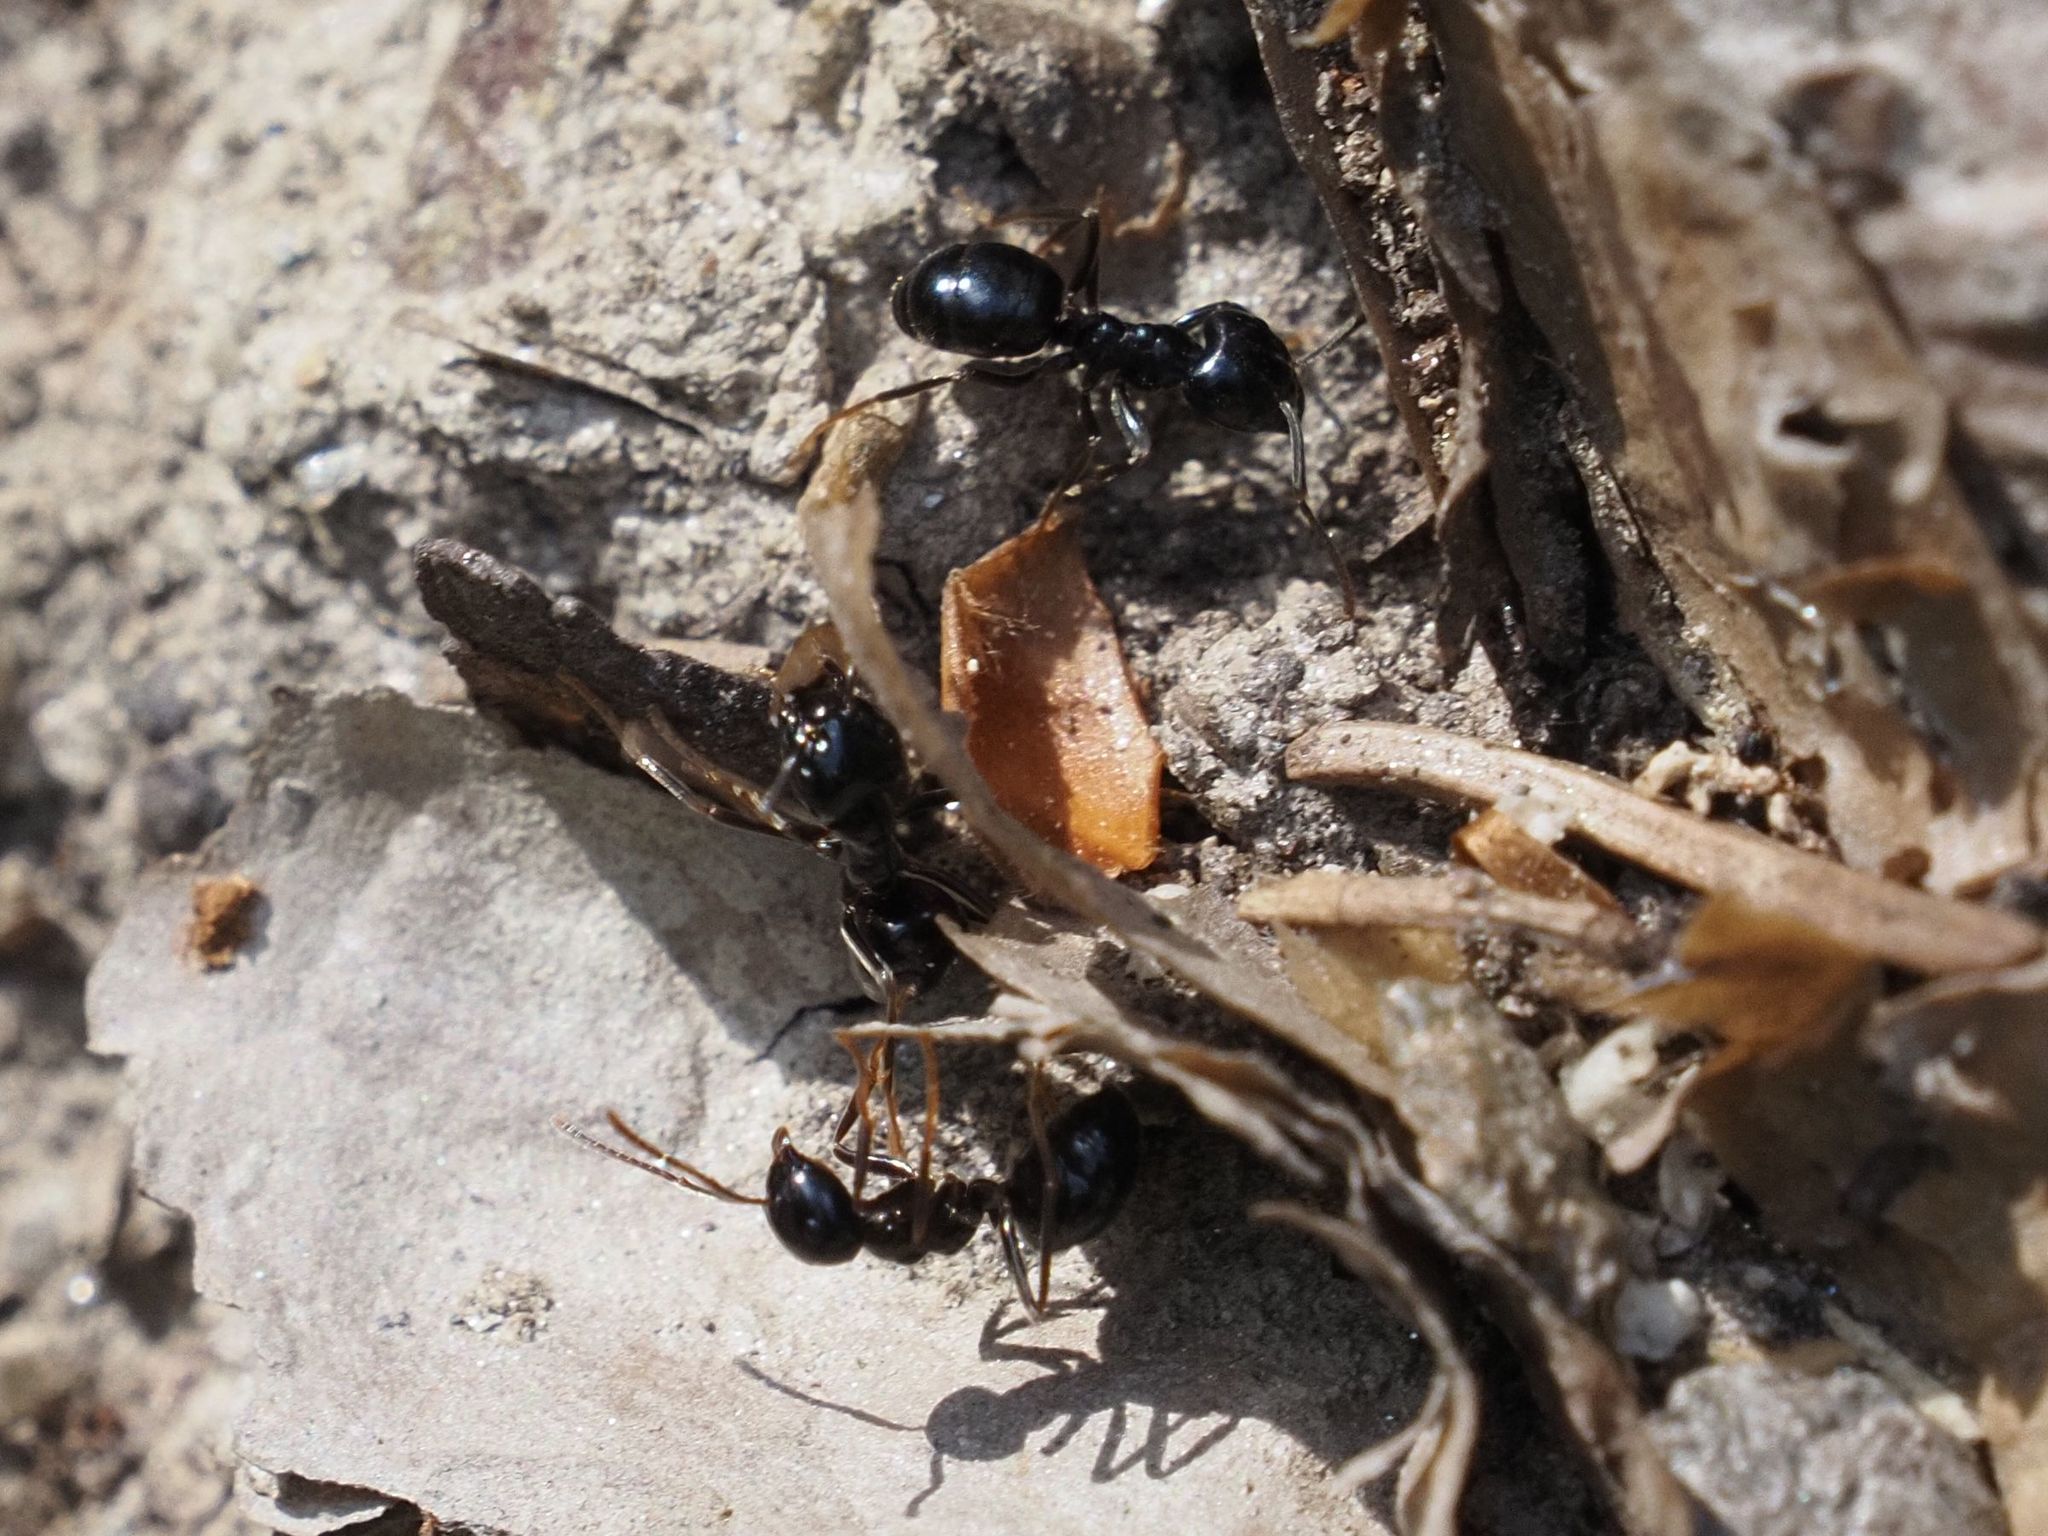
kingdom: Animalia
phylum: Arthropoda
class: Insecta
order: Hymenoptera
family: Formicidae
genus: Lasius
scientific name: Lasius fuliginosus
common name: Jet ant
